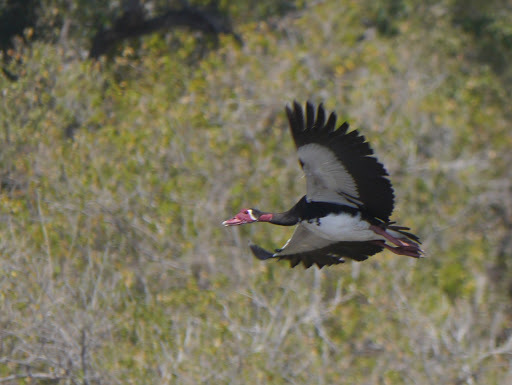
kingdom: Animalia
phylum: Chordata
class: Aves
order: Anseriformes
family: Anatidae
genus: Plectropterus
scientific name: Plectropterus gambensis
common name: Spur-winged goose
